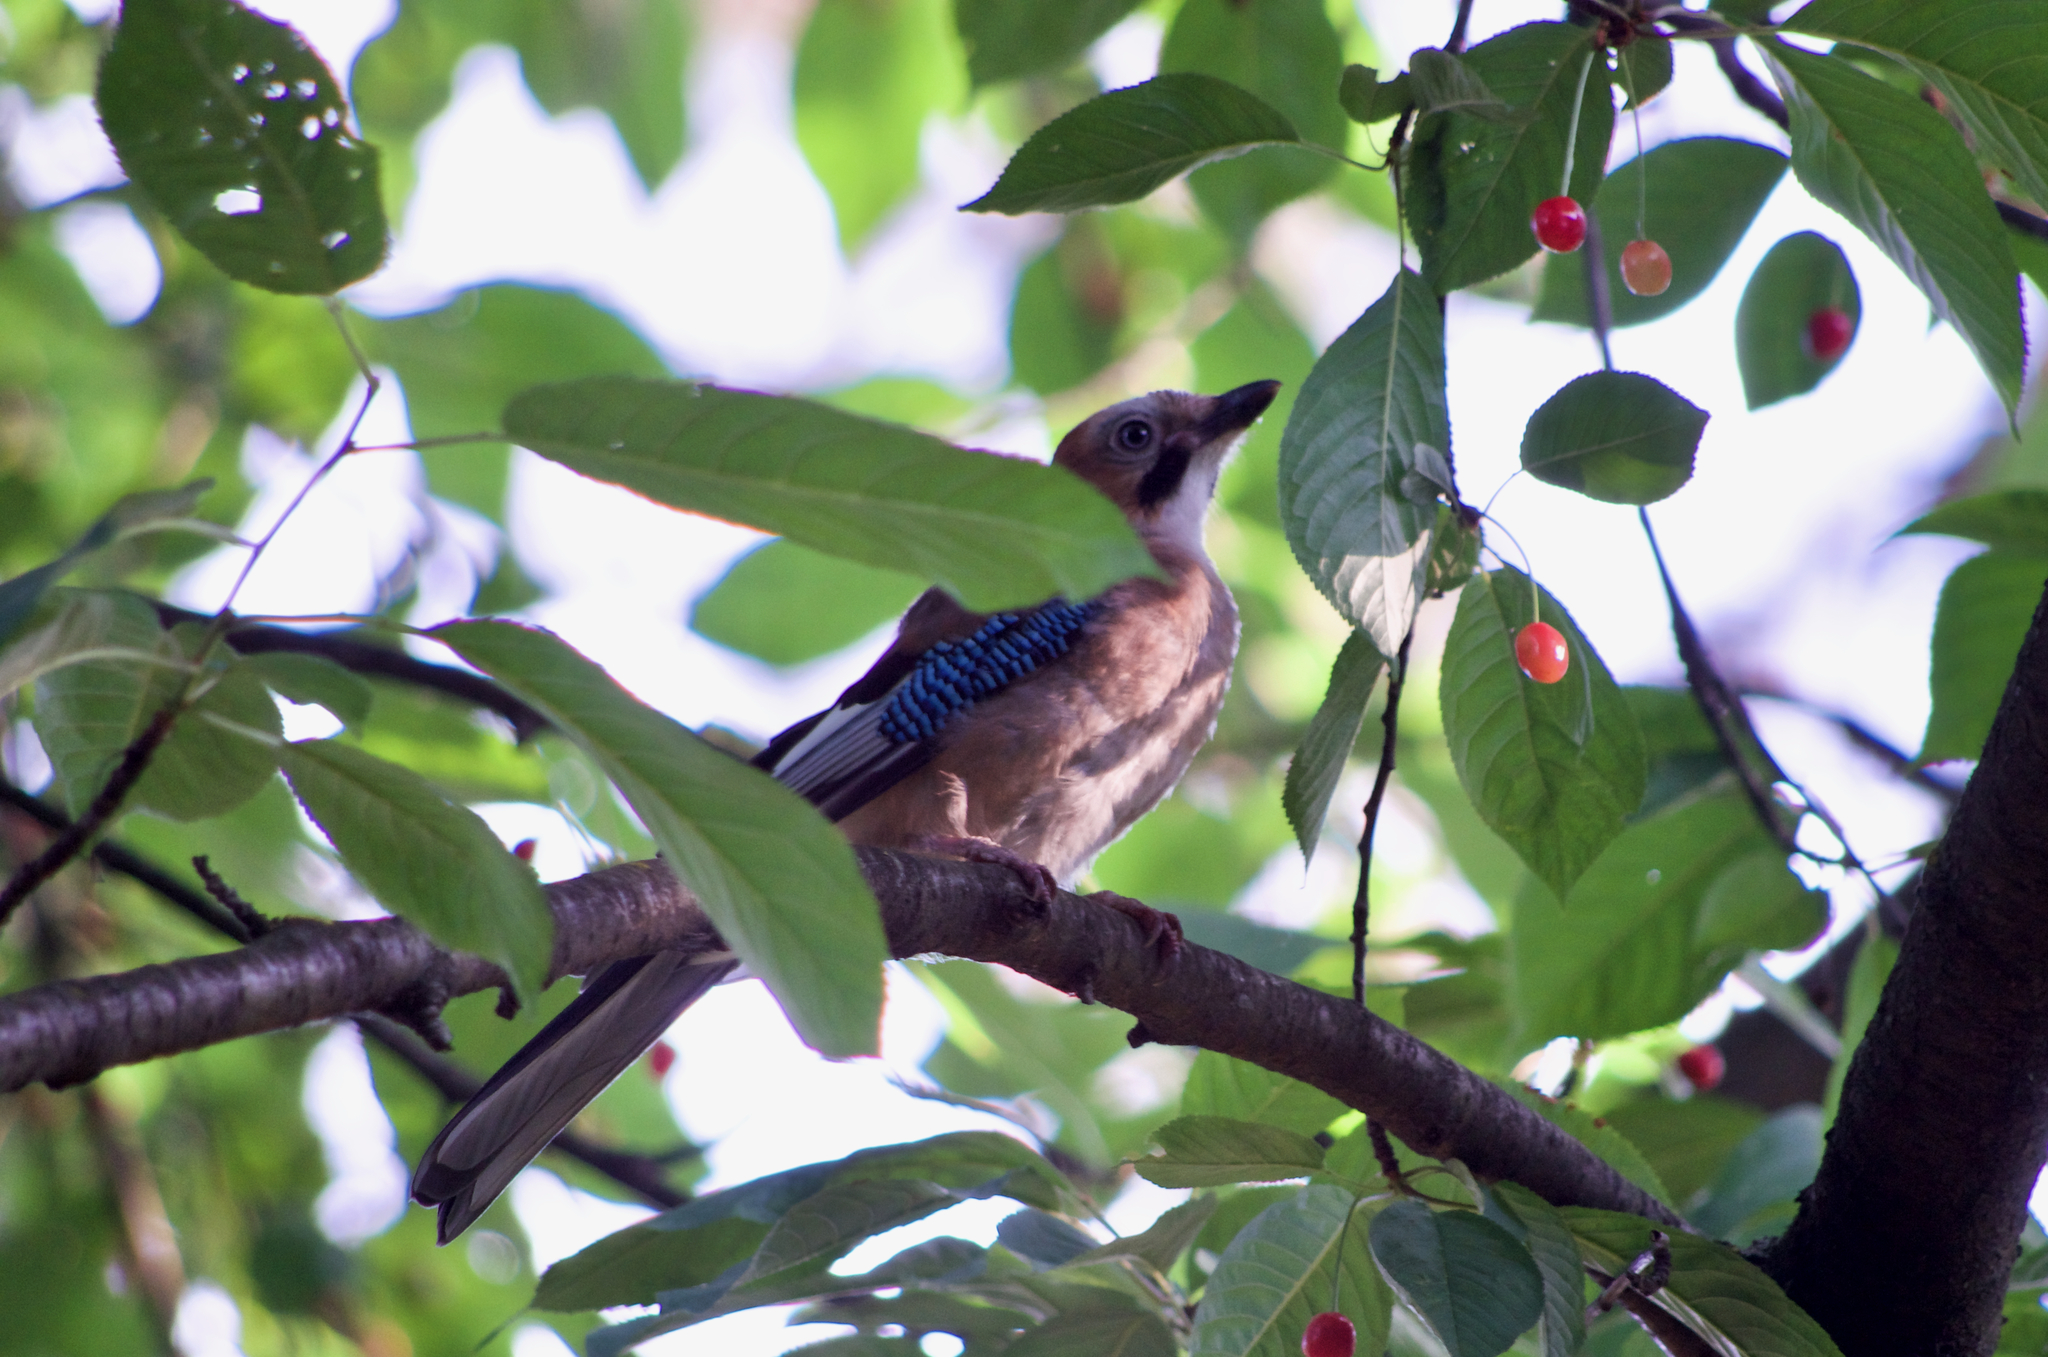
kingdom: Animalia
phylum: Chordata
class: Aves
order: Passeriformes
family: Corvidae
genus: Garrulus
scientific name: Garrulus glandarius
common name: Eurasian jay
